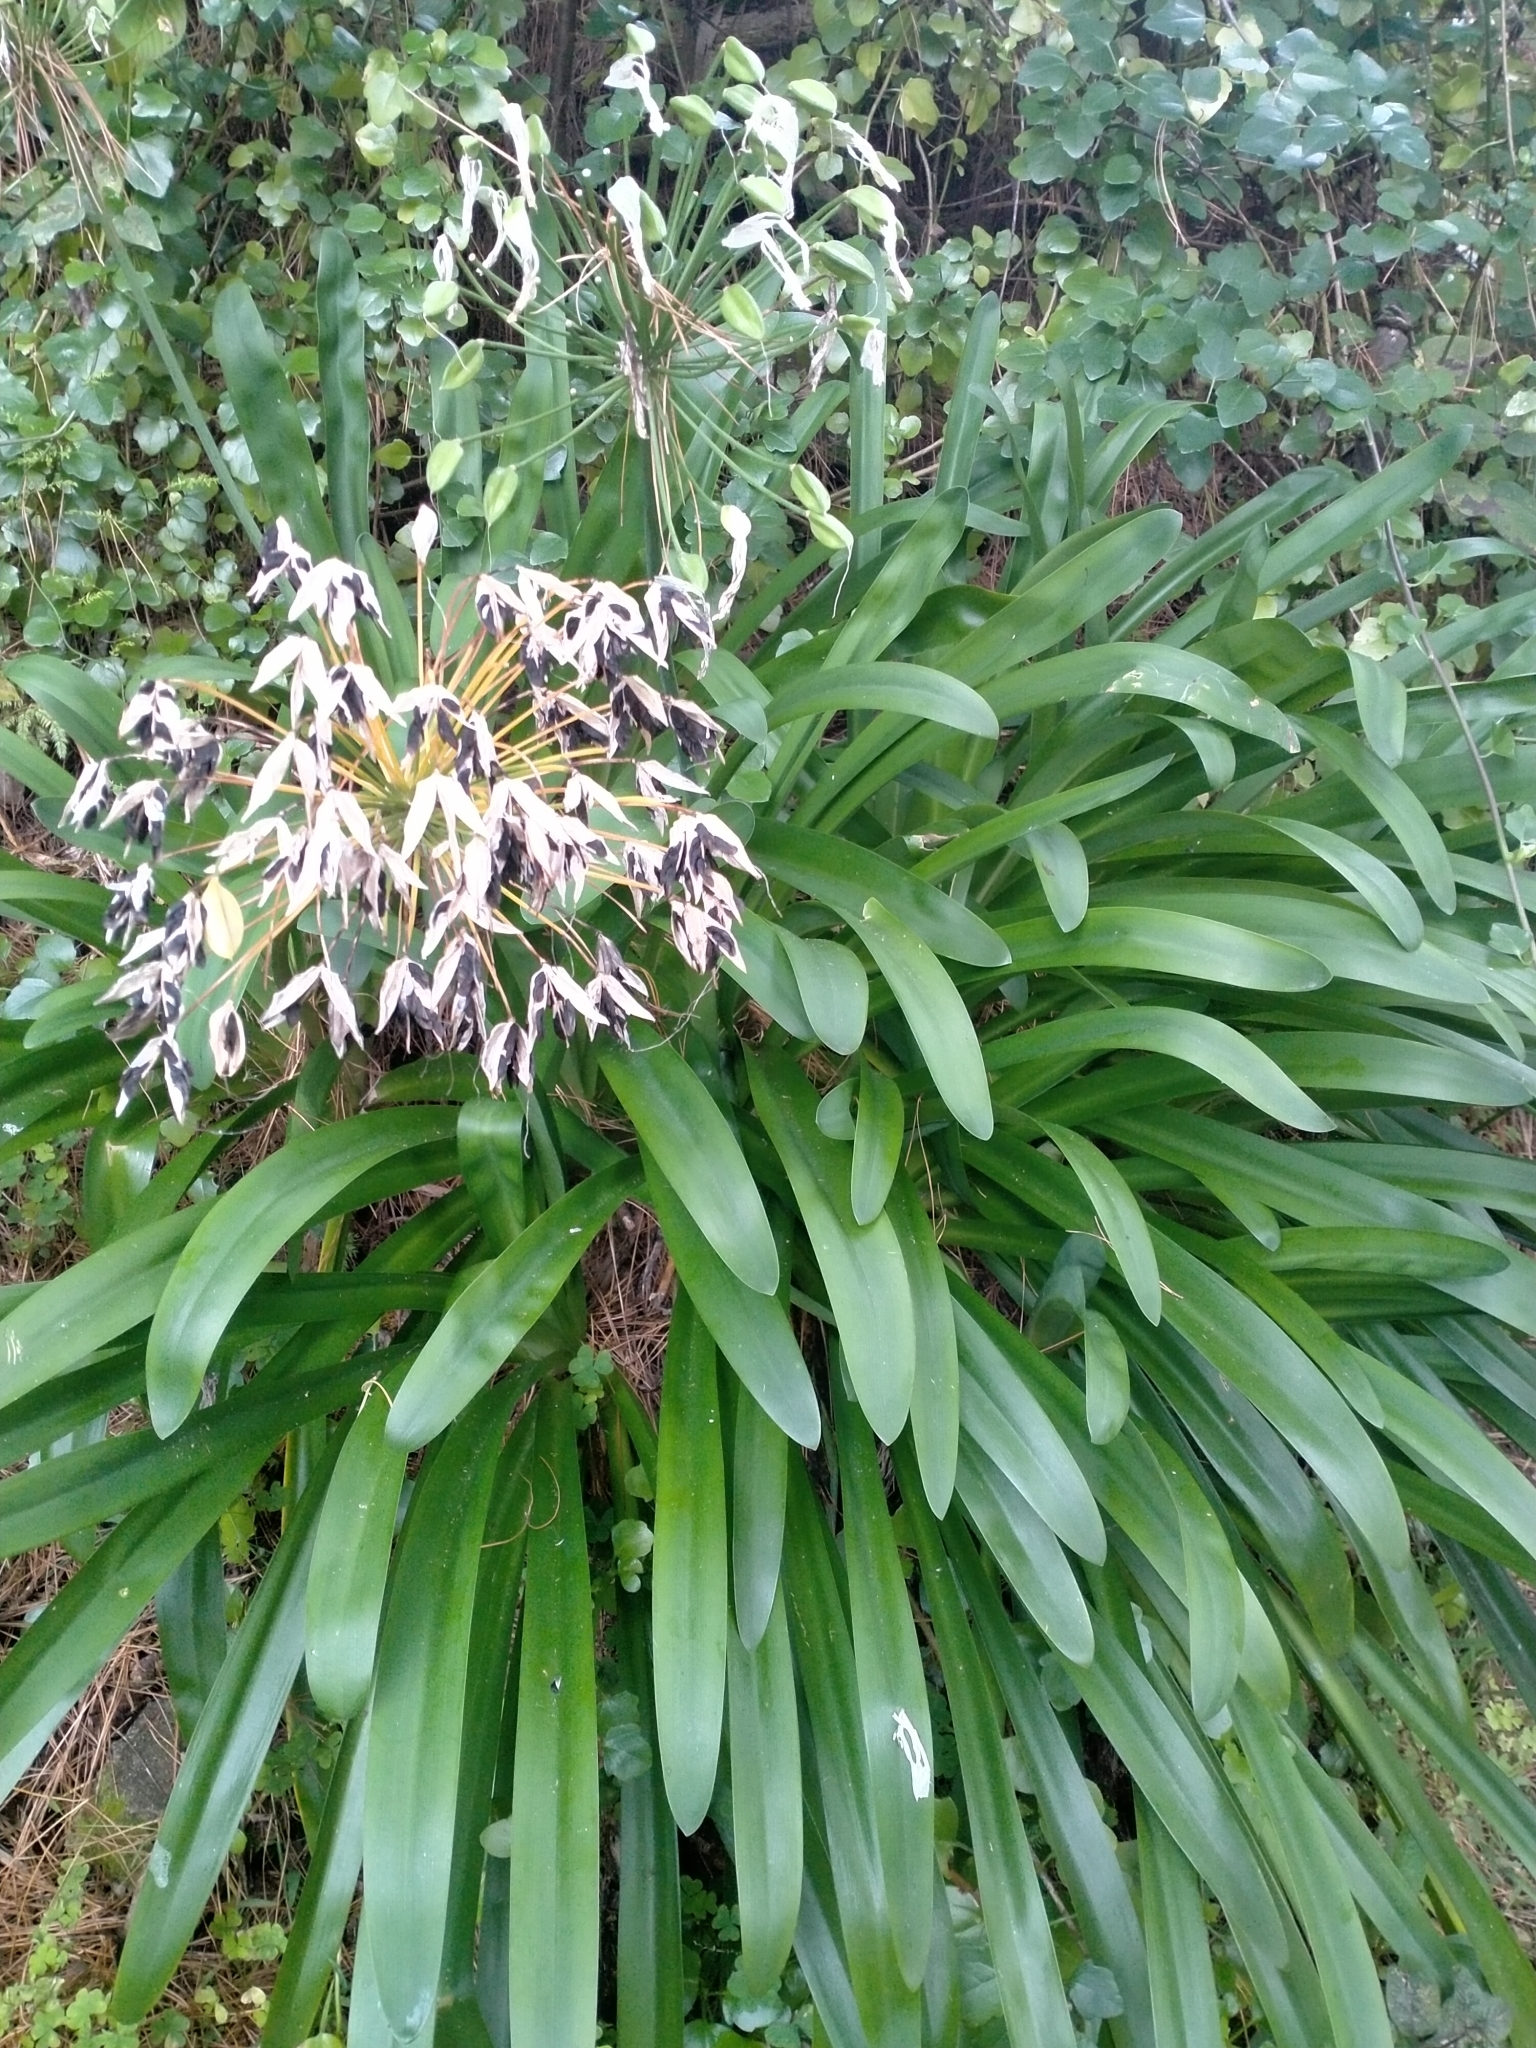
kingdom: Plantae
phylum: Tracheophyta
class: Liliopsida
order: Asparagales
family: Amaryllidaceae
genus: Agapanthus
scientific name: Agapanthus praecox
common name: African-lily
